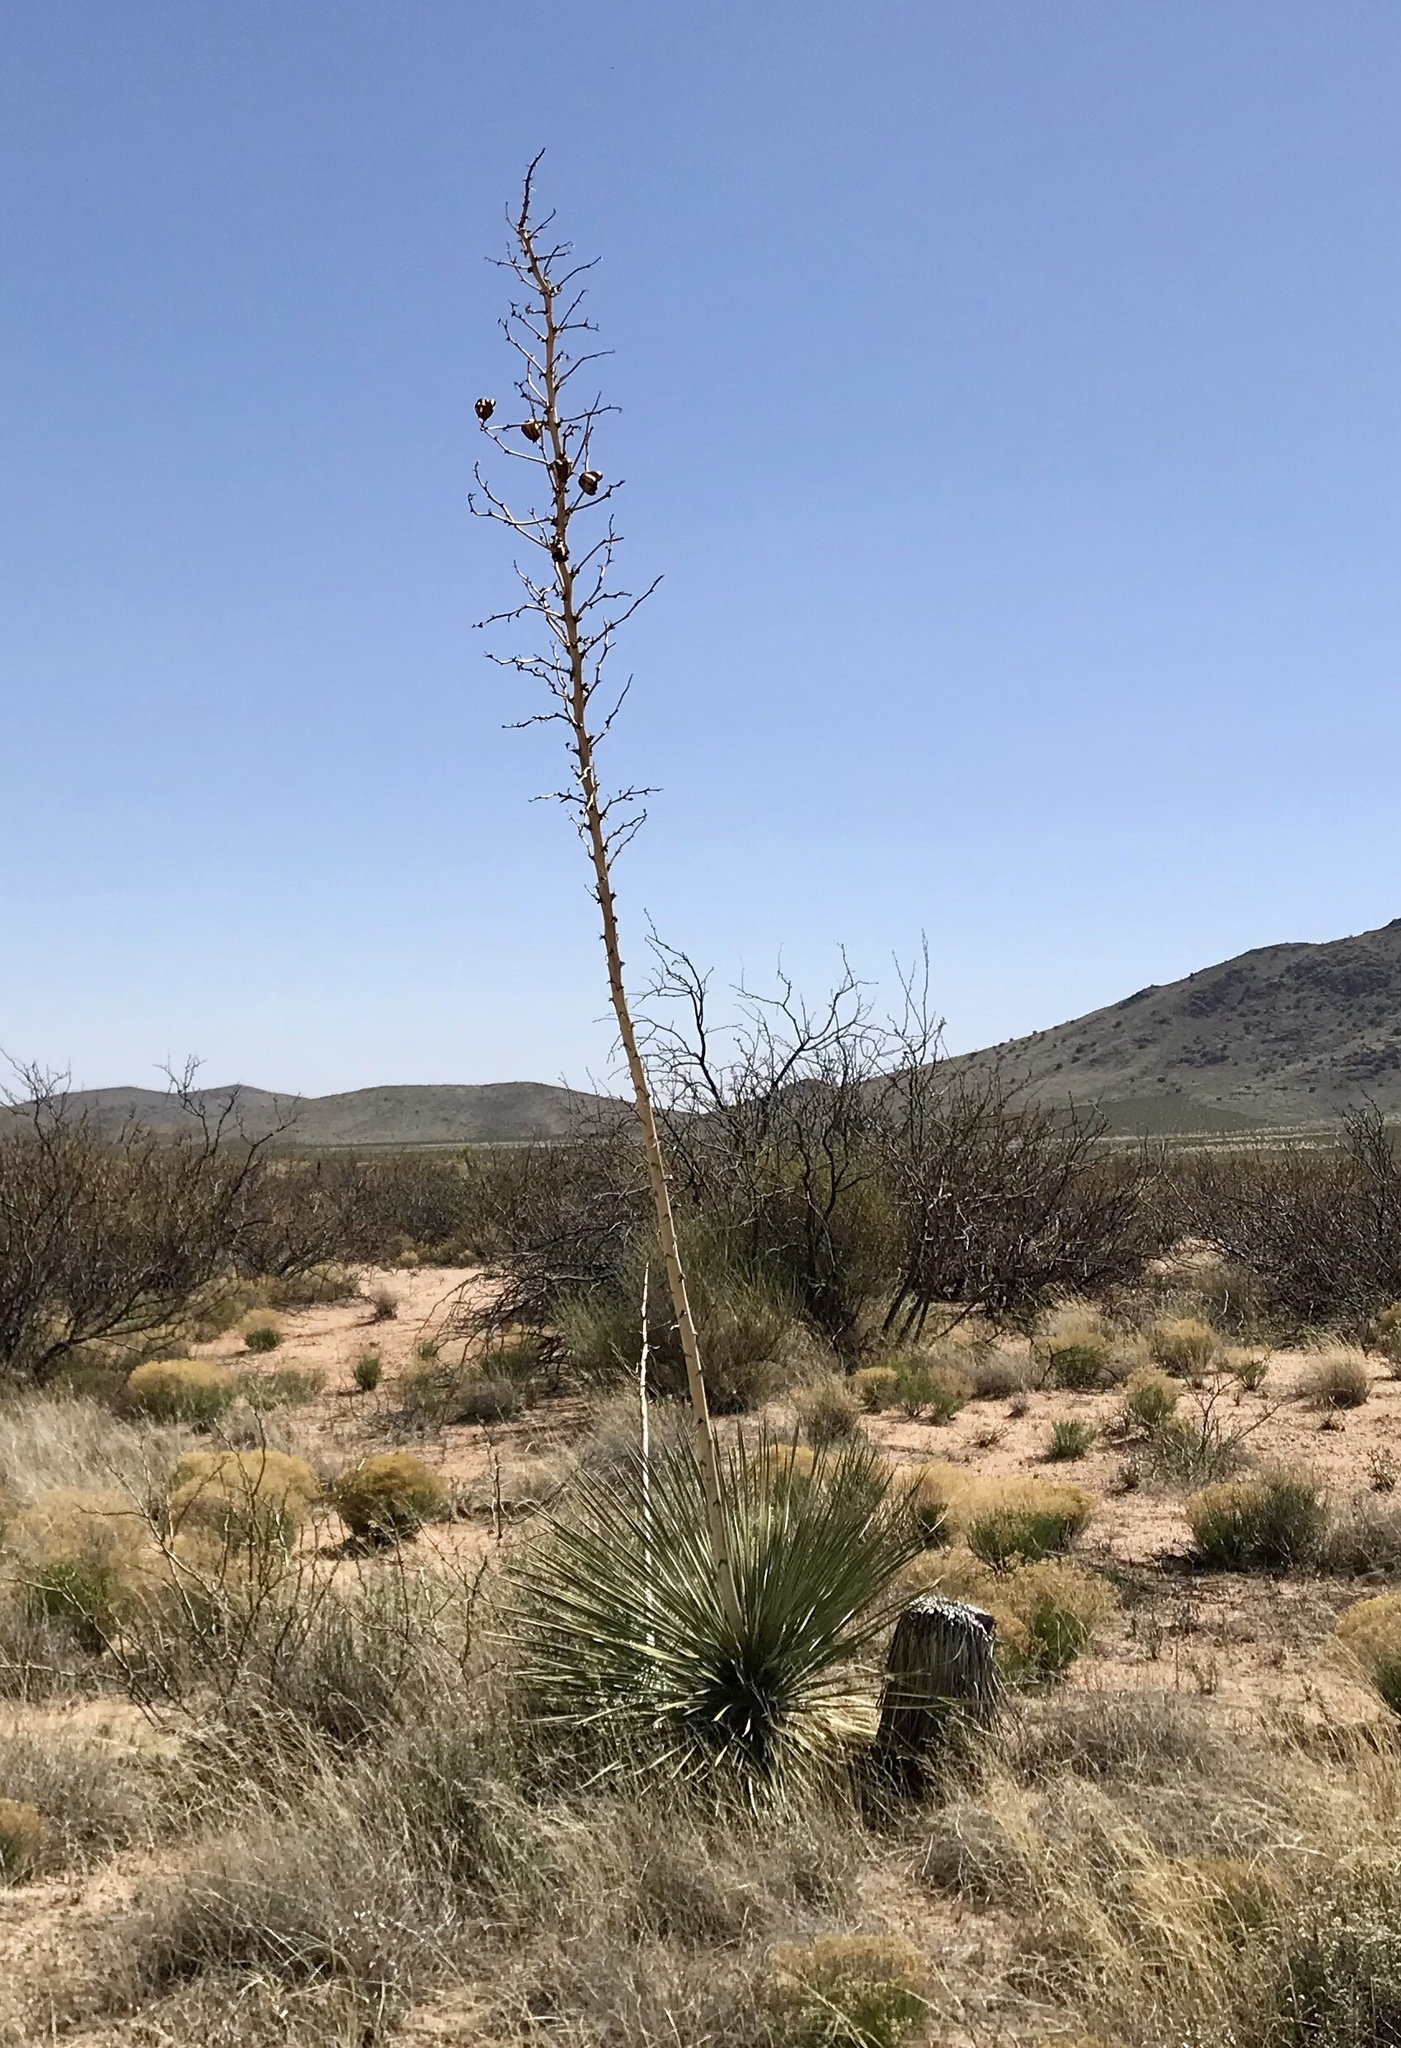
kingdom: Plantae
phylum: Tracheophyta
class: Liliopsida
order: Asparagales
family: Asparagaceae
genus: Yucca
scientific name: Yucca elata
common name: Palmella
